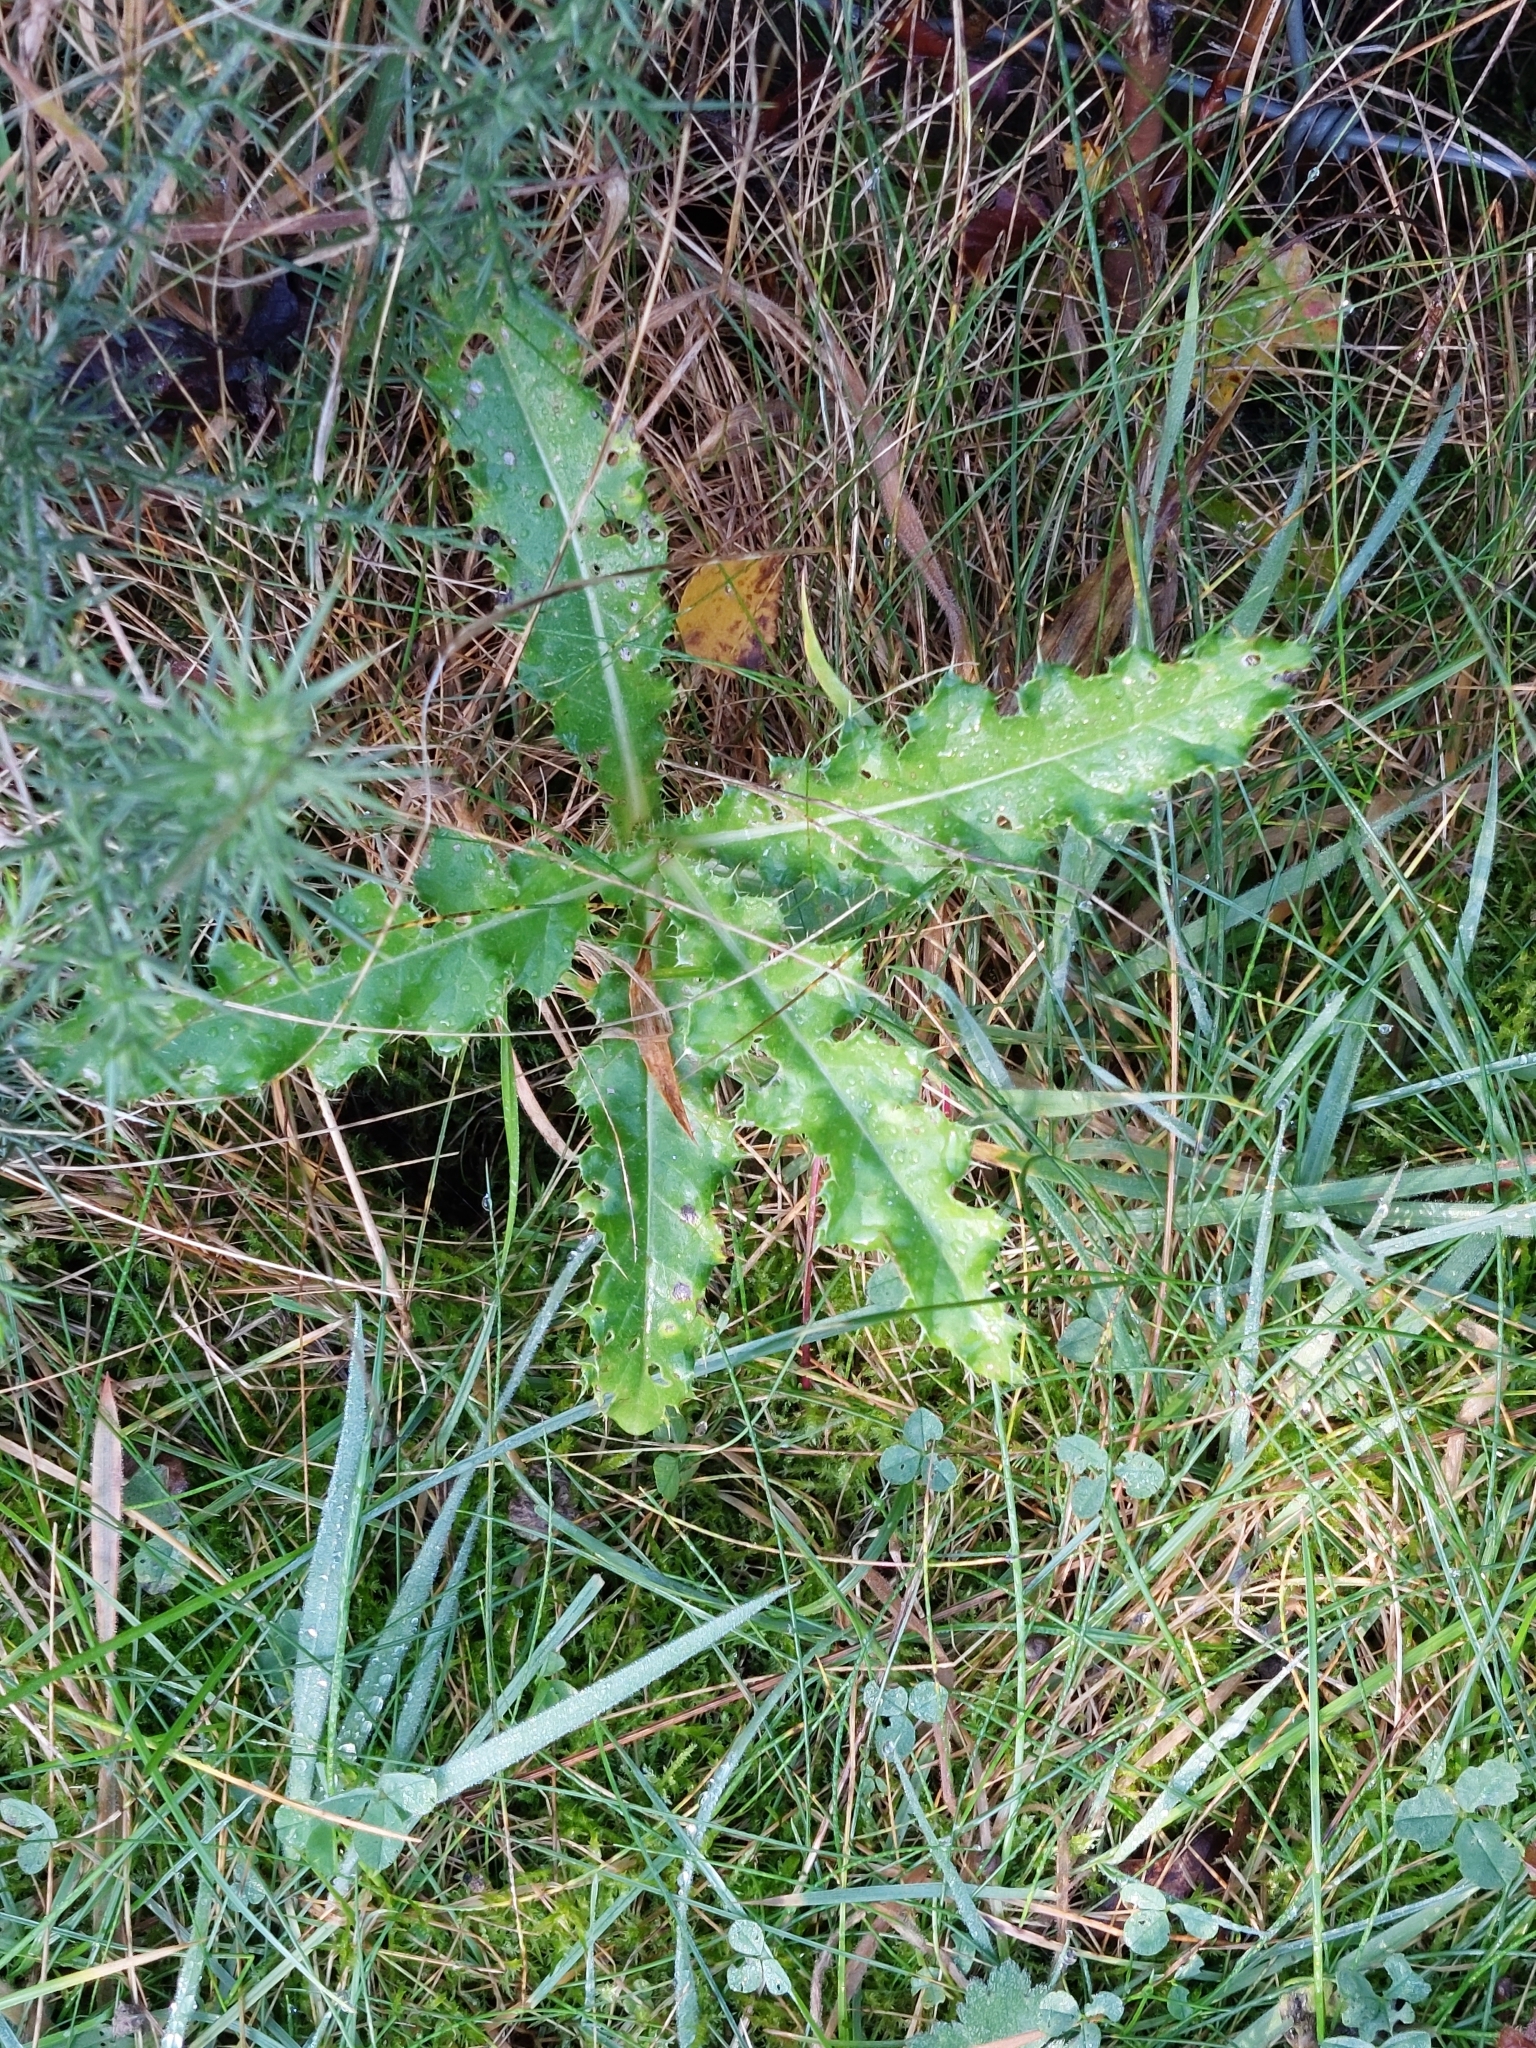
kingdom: Plantae
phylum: Tracheophyta
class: Magnoliopsida
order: Asterales
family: Asteraceae
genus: Cirsium
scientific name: Cirsium arvense
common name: Creeping thistle
